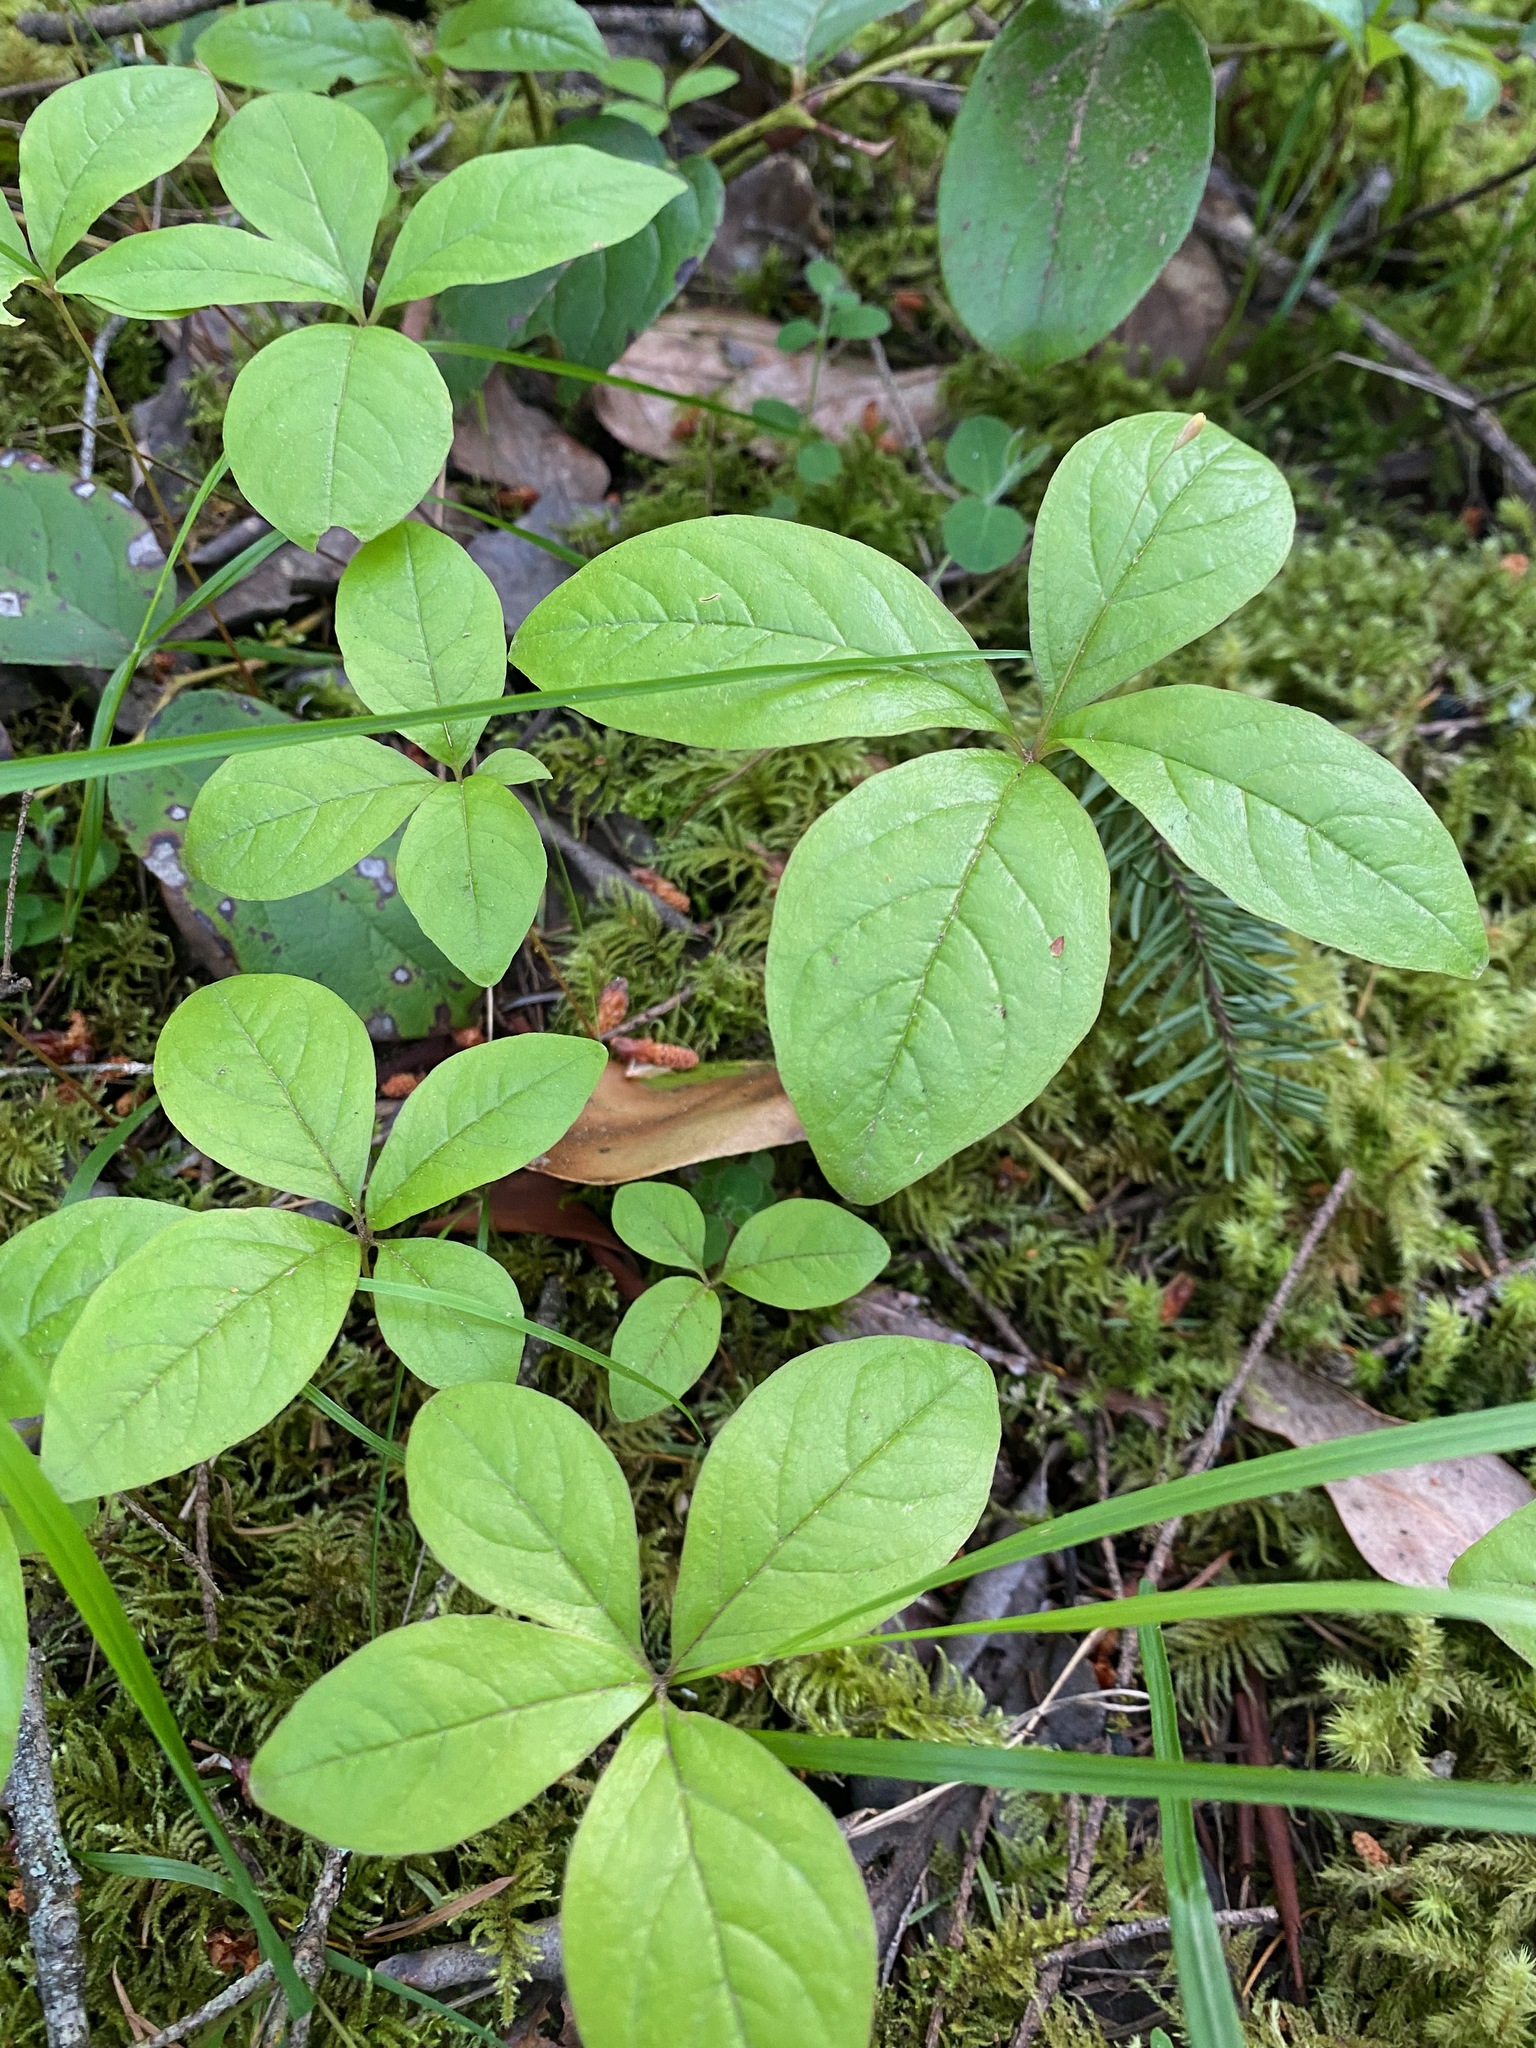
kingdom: Plantae
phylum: Tracheophyta
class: Magnoliopsida
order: Ericales
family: Primulaceae
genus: Lysimachia
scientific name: Lysimachia latifolia
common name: Pacific starflower
